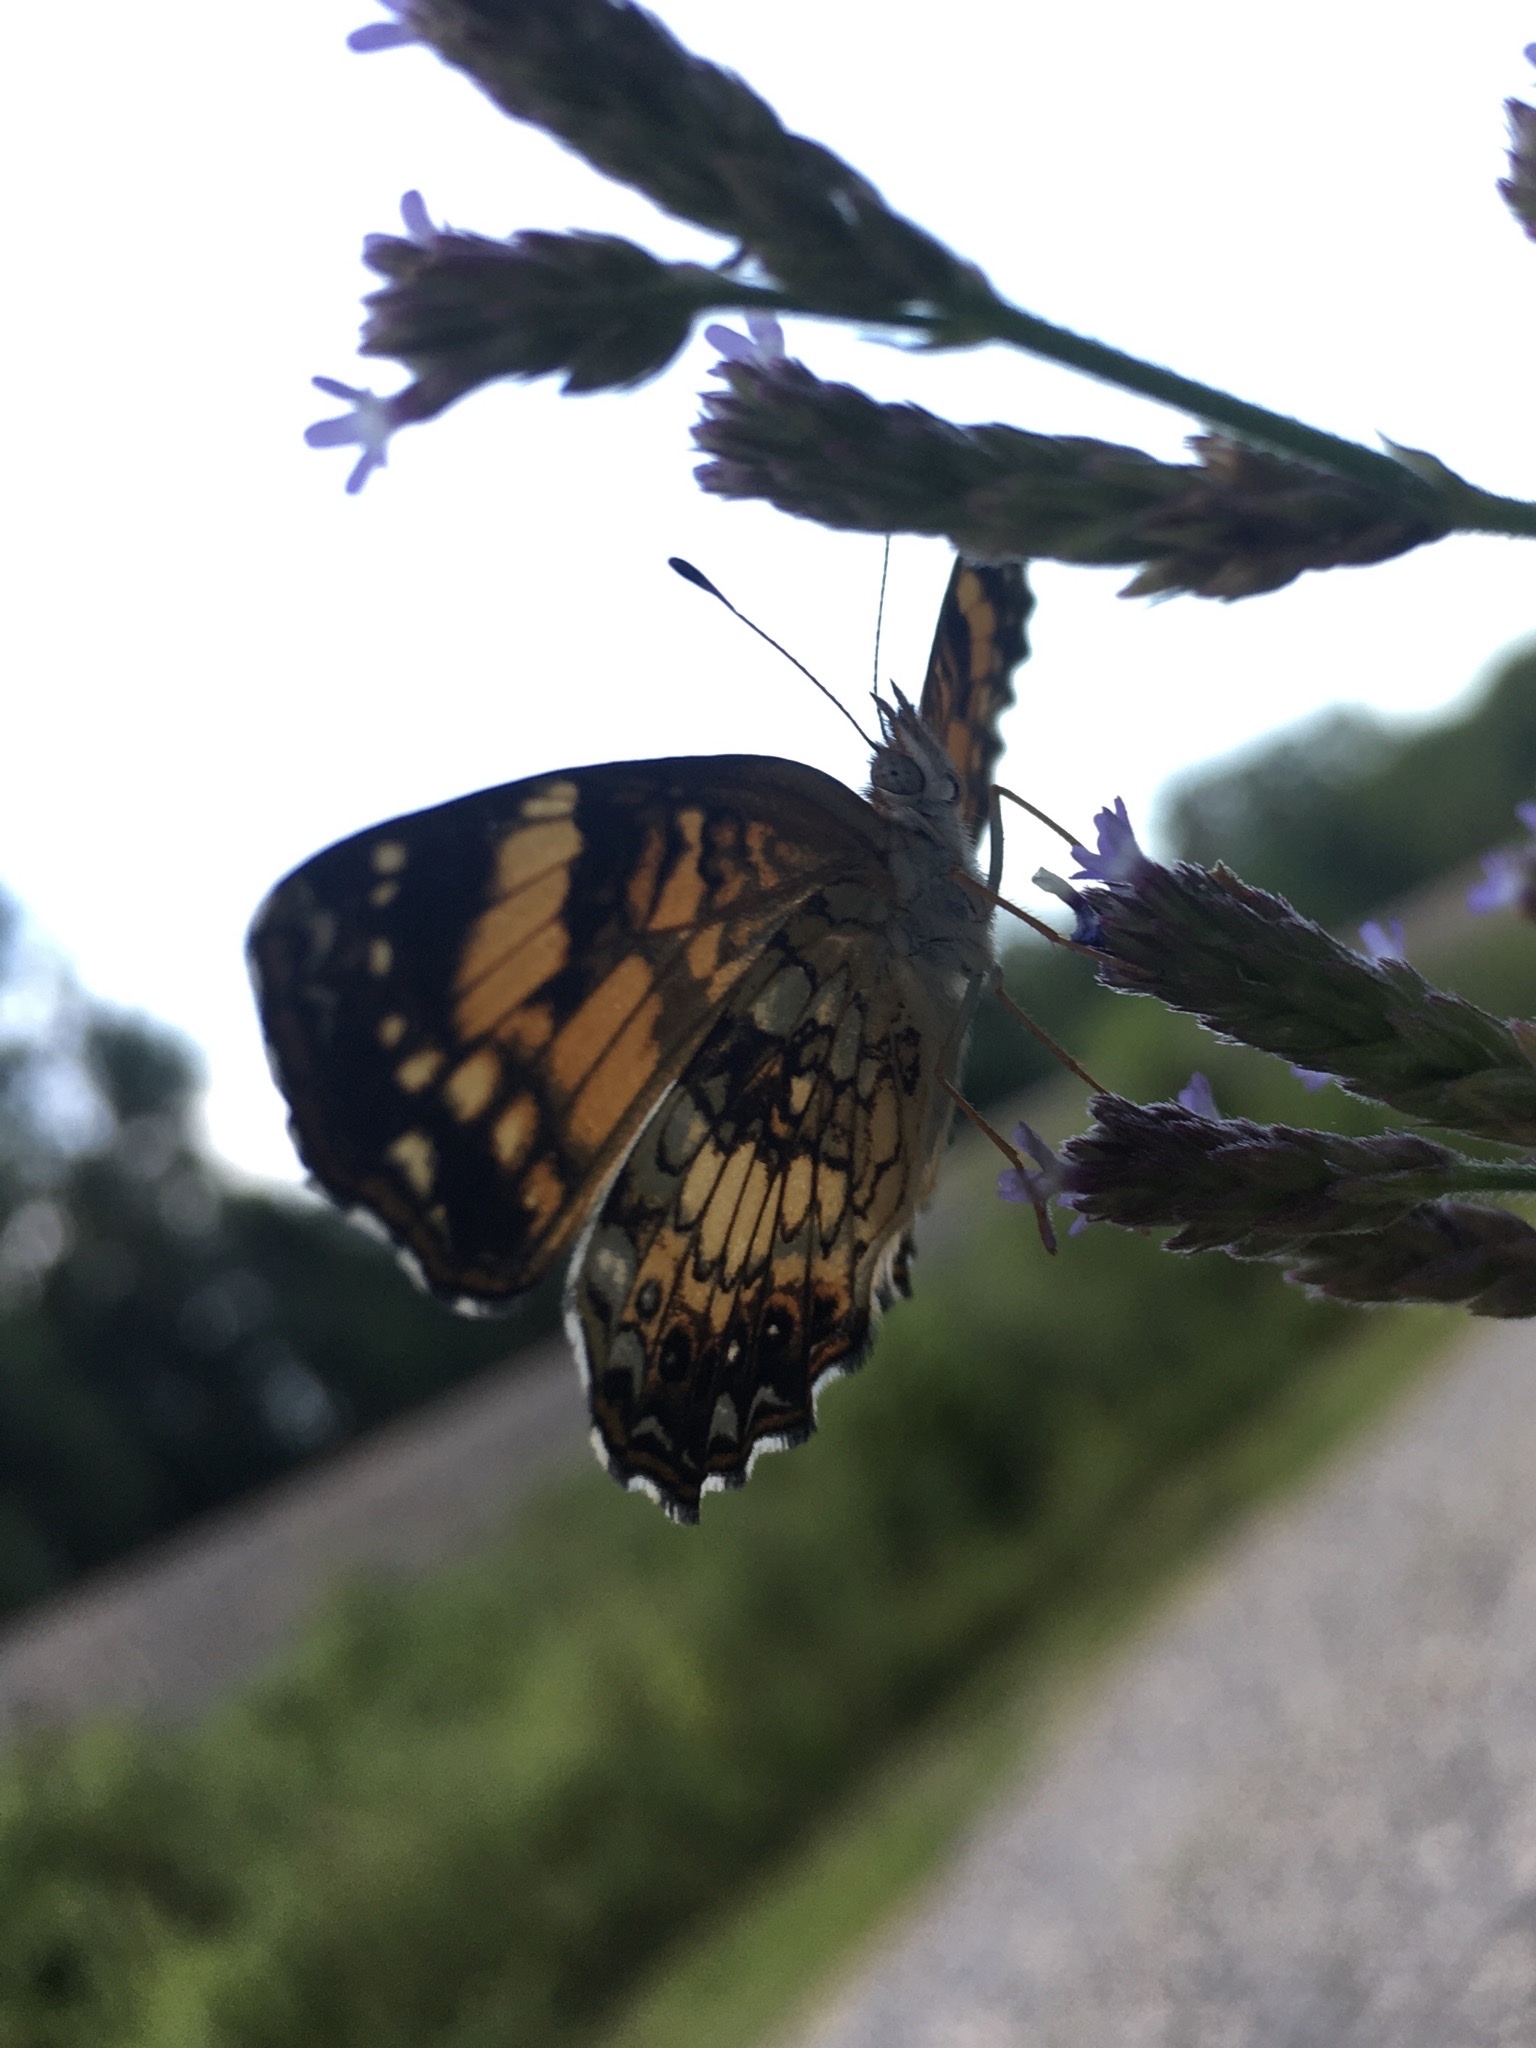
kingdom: Animalia
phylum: Arthropoda
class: Insecta
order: Lepidoptera
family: Nymphalidae
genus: Chlosyne
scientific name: Chlosyne nycteis
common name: Silvery checkerspot
